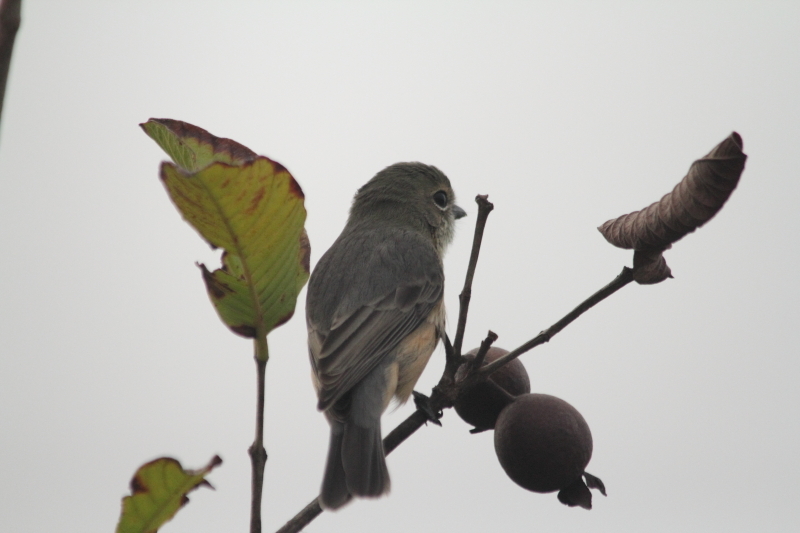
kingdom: Animalia
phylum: Chordata
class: Aves
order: Passeriformes
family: Pachycephalidae
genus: Pachycephala
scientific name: Pachycephala rufiventris
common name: Rufous whistler
